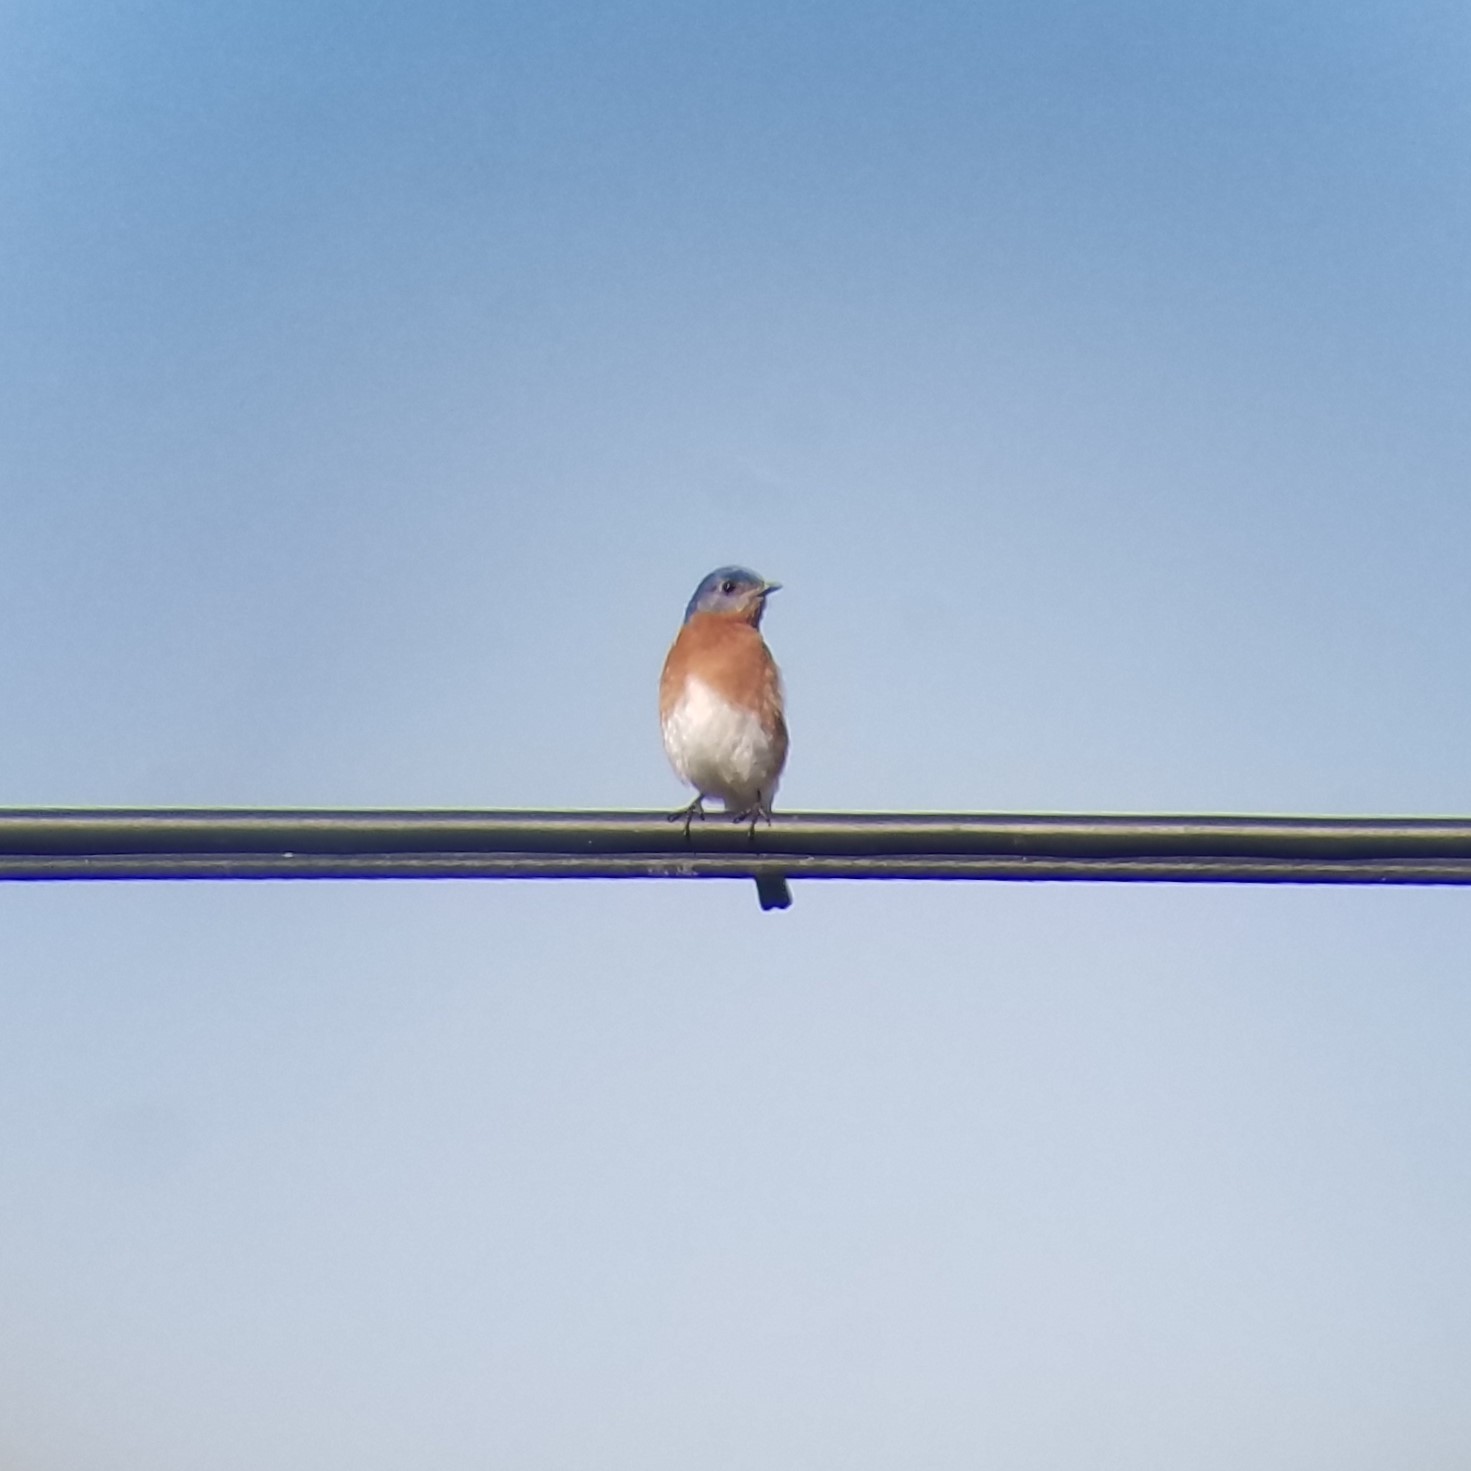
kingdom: Animalia
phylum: Chordata
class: Aves
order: Passeriformes
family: Turdidae
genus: Sialia
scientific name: Sialia sialis
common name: Eastern bluebird
